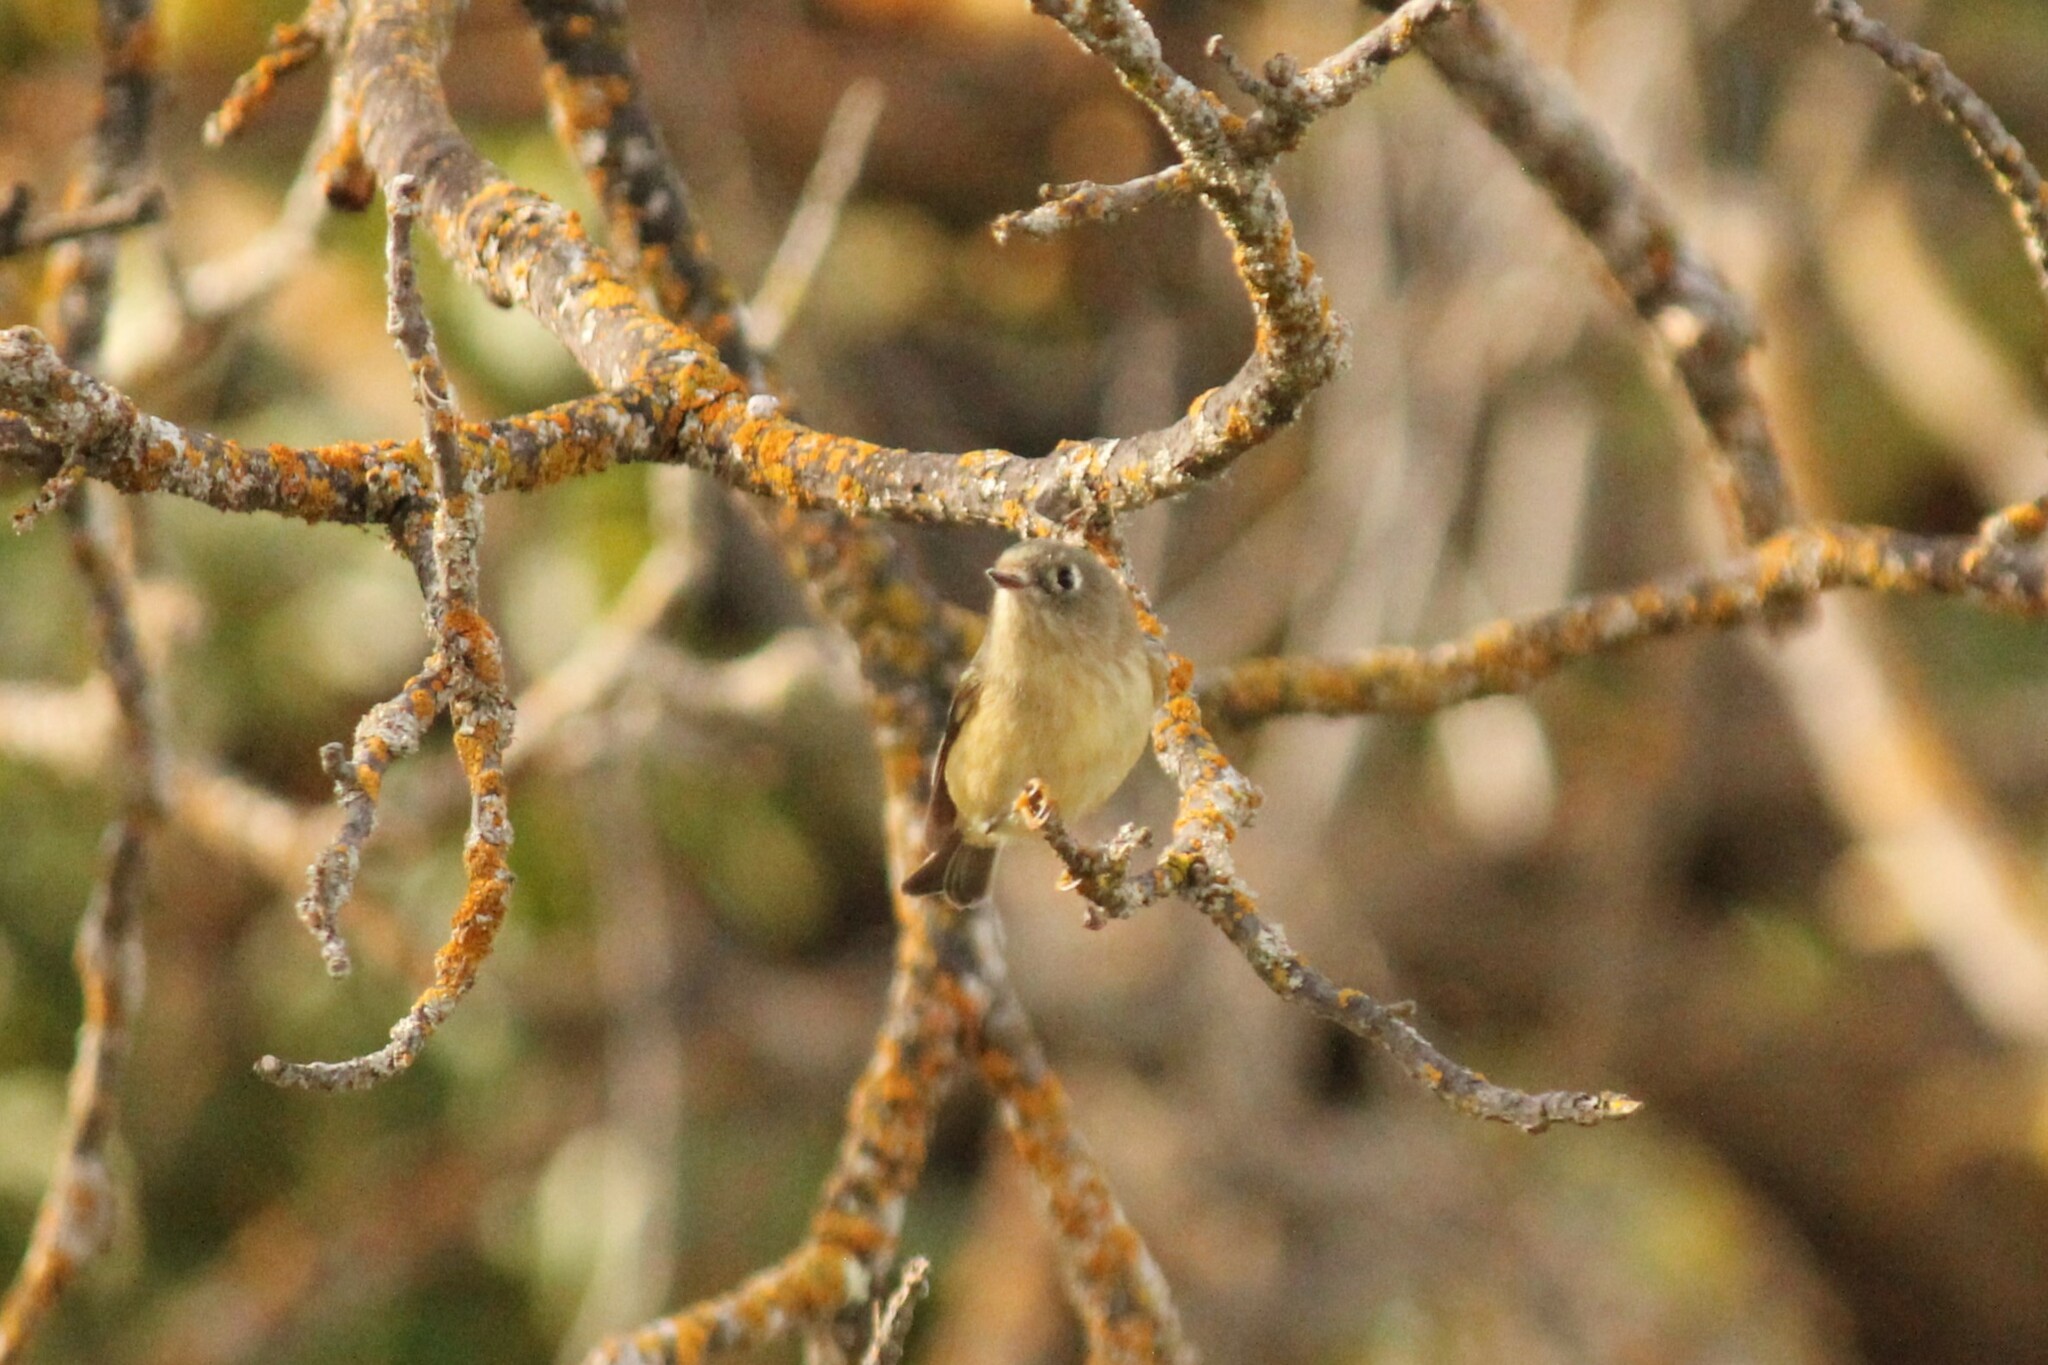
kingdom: Animalia
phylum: Chordata
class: Aves
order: Passeriformes
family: Regulidae
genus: Regulus
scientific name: Regulus calendula
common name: Ruby-crowned kinglet
